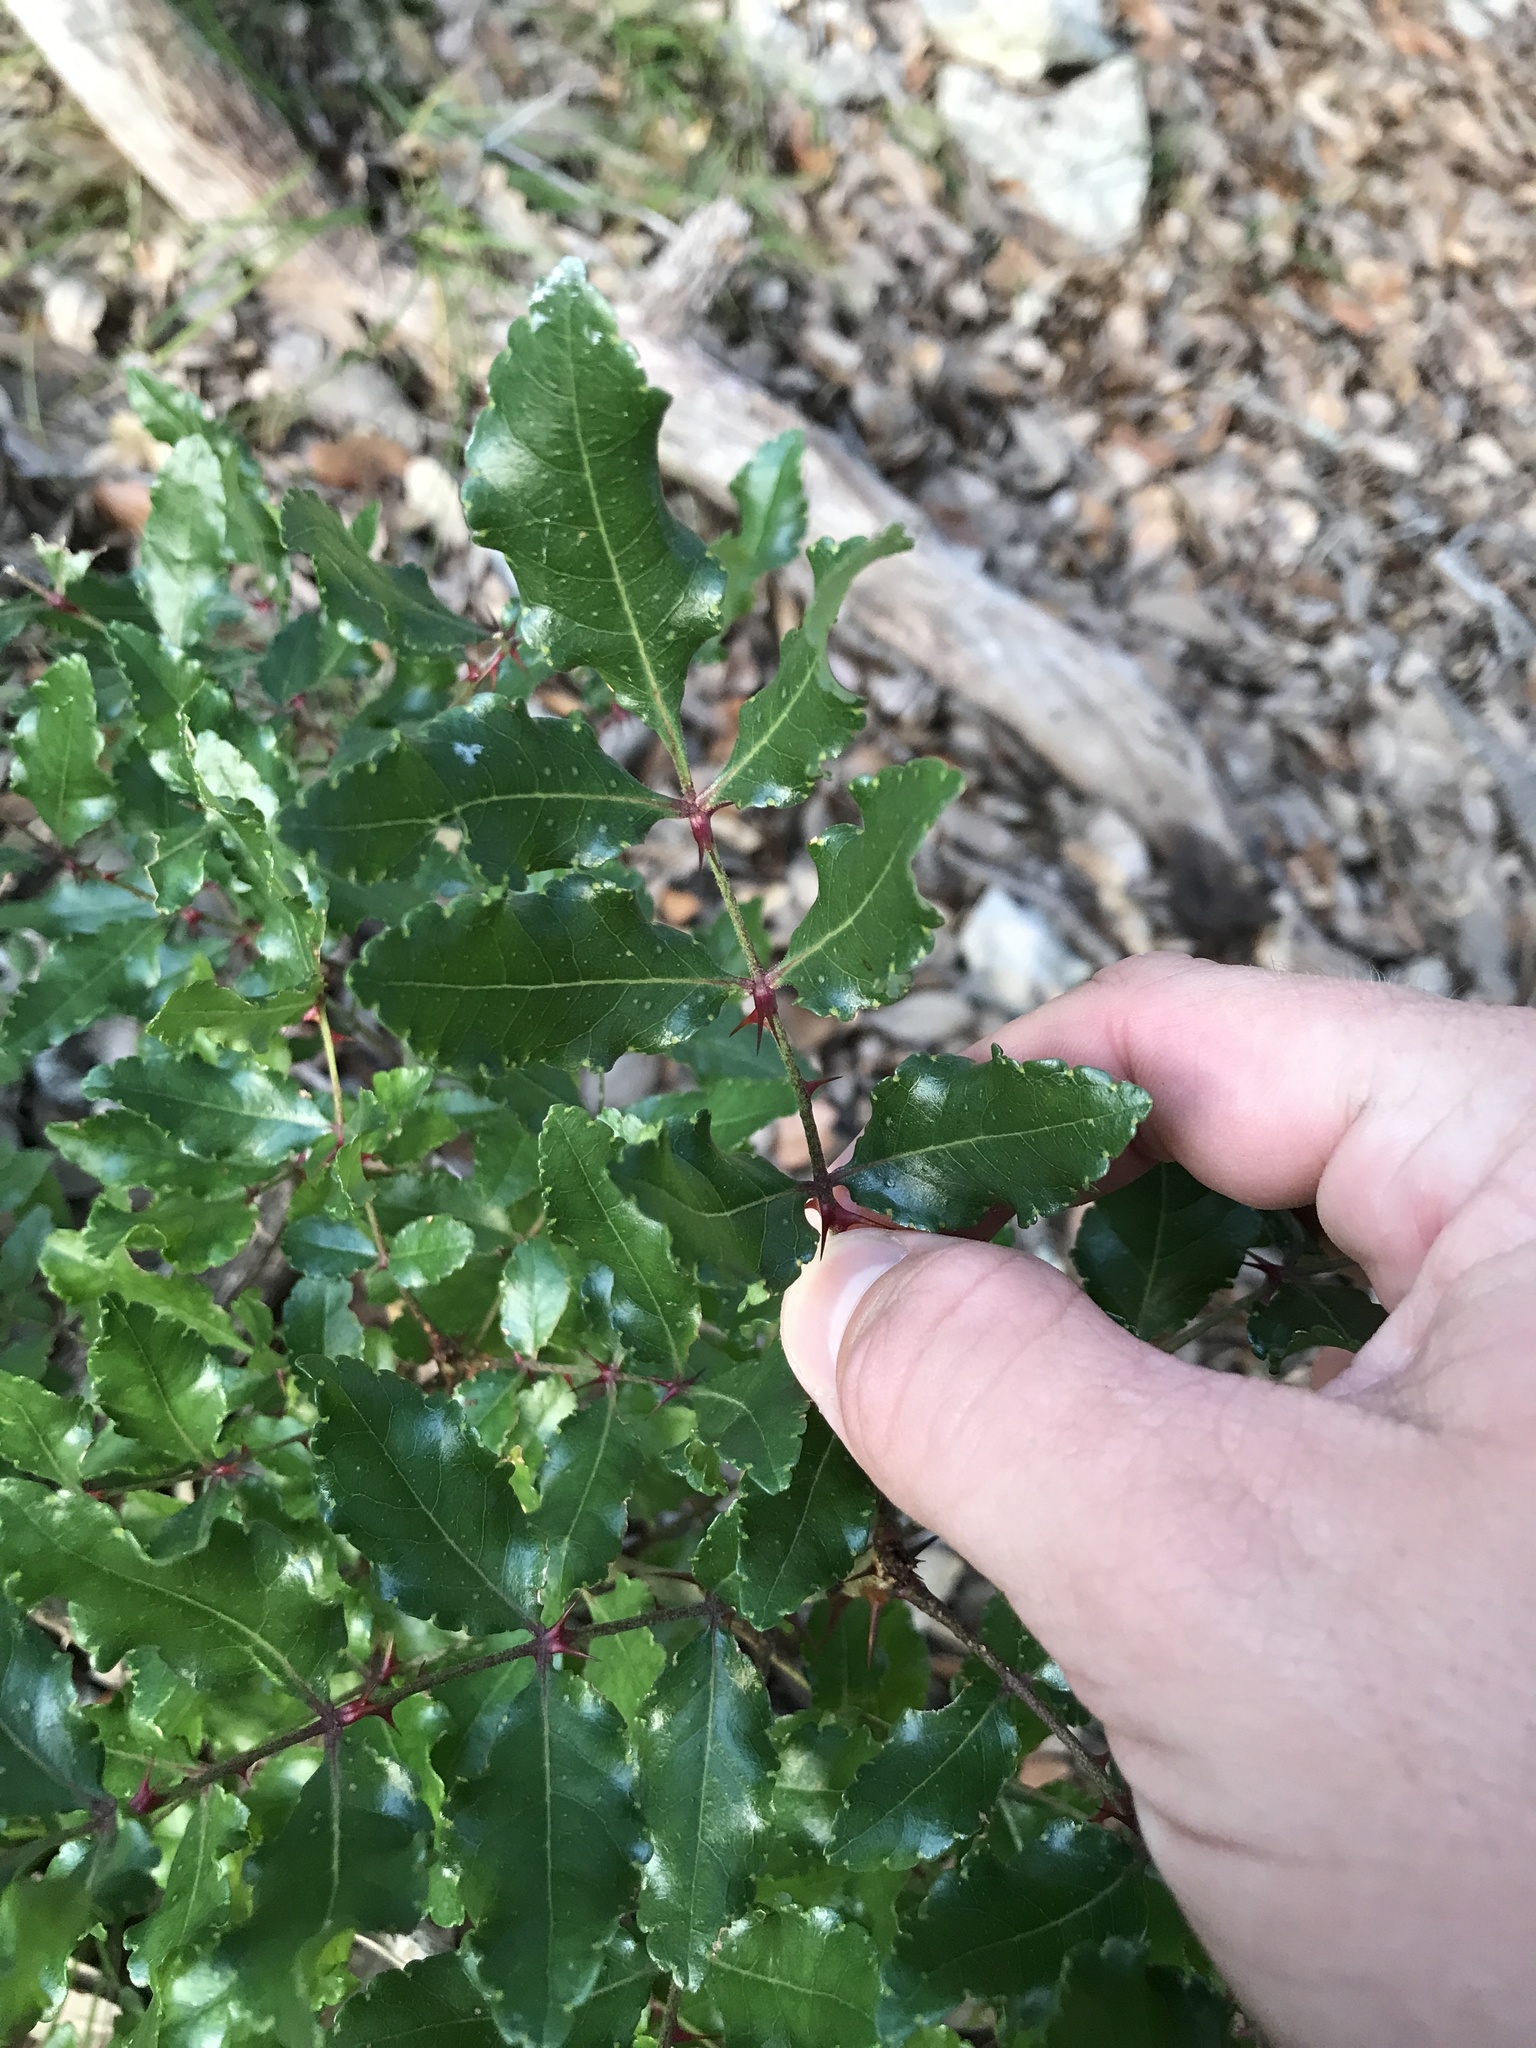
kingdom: Plantae
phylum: Tracheophyta
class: Magnoliopsida
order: Sapindales
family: Rutaceae
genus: Zanthoxylum
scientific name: Zanthoxylum clava-herculis
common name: Hercules'-club
